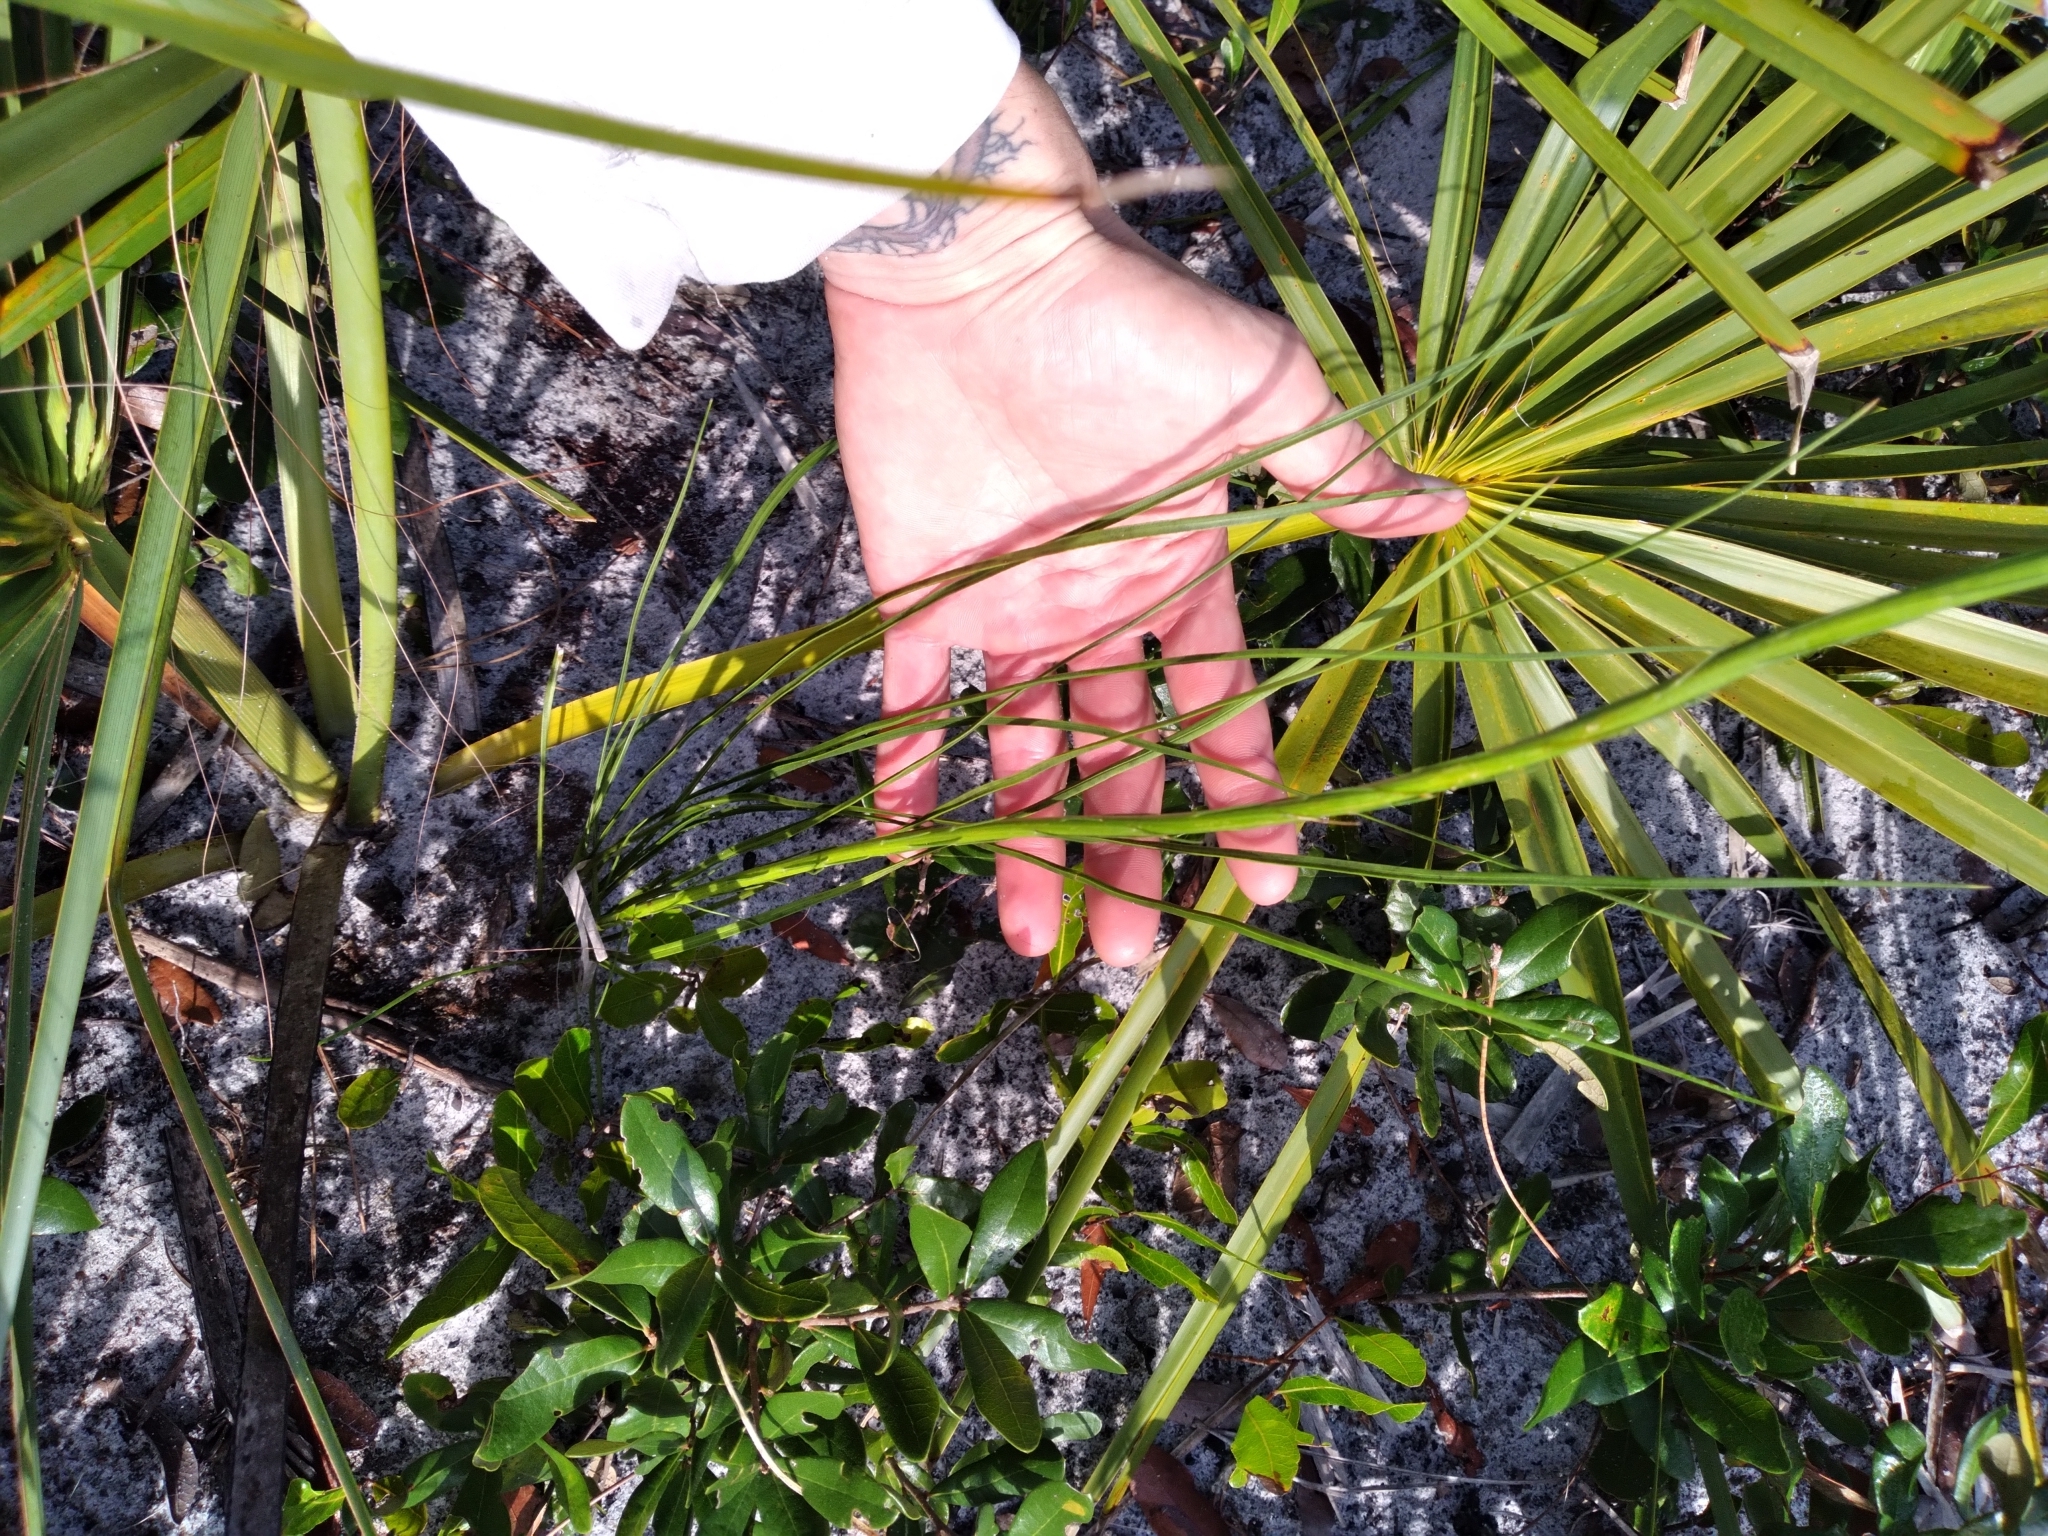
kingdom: Plantae
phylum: Tracheophyta
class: Magnoliopsida
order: Asterales
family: Asteraceae
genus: Liatris
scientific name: Liatris laevigata
